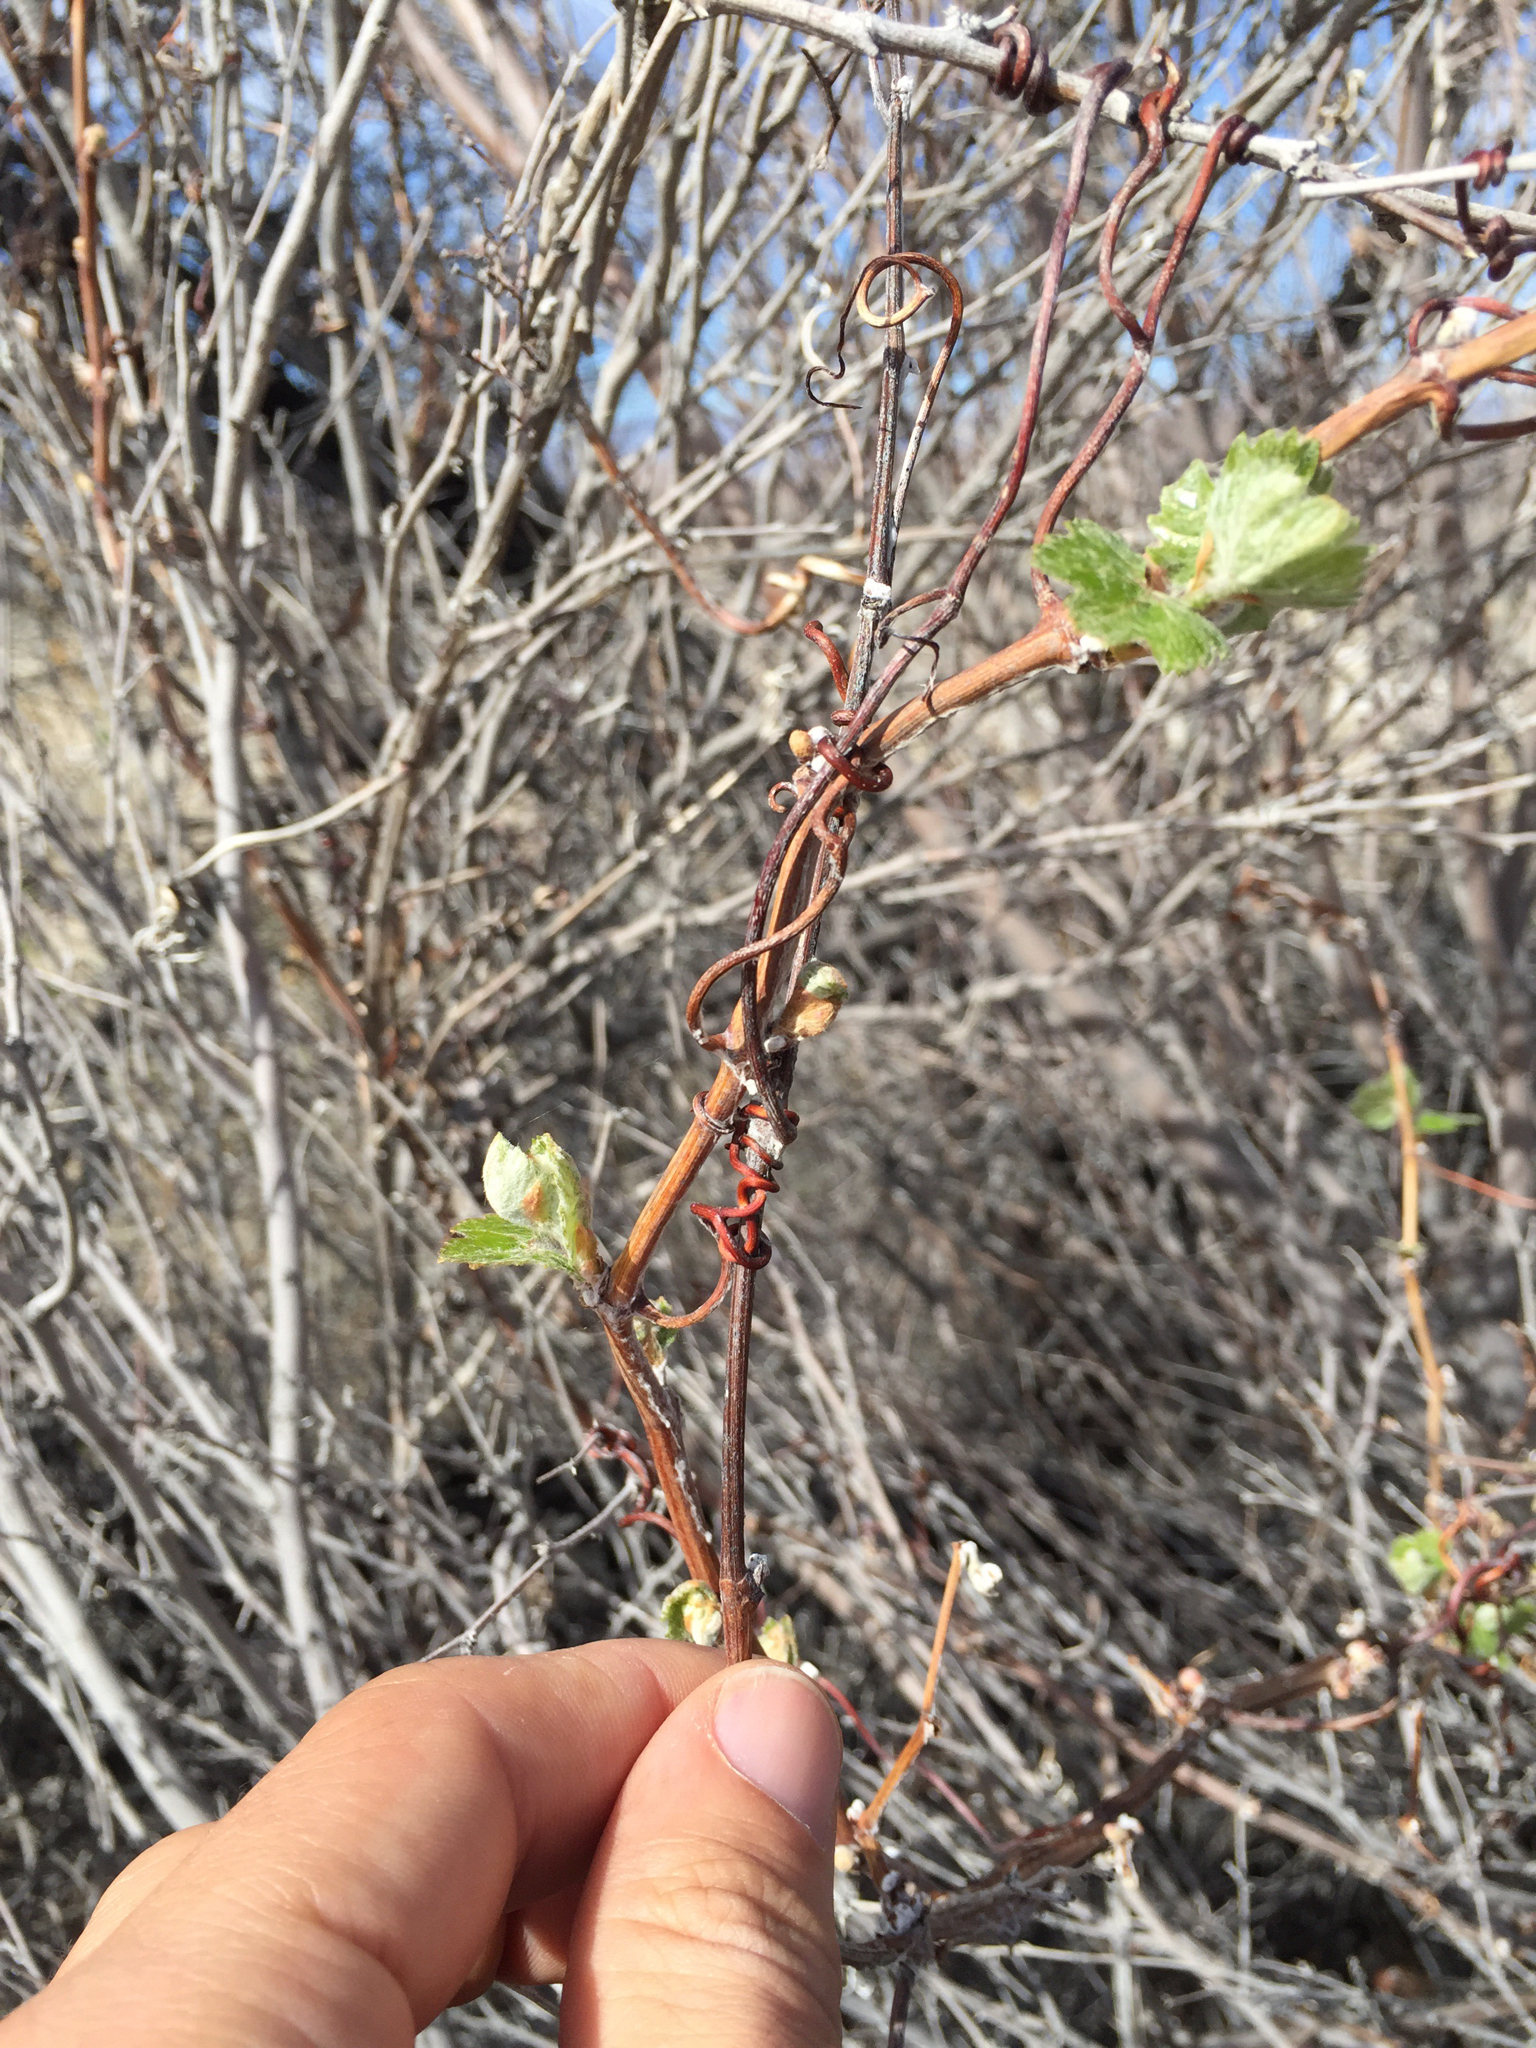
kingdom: Plantae
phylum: Tracheophyta
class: Magnoliopsida
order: Vitales
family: Vitaceae
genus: Vitis
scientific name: Vitis arizonica
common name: Canyon grape
